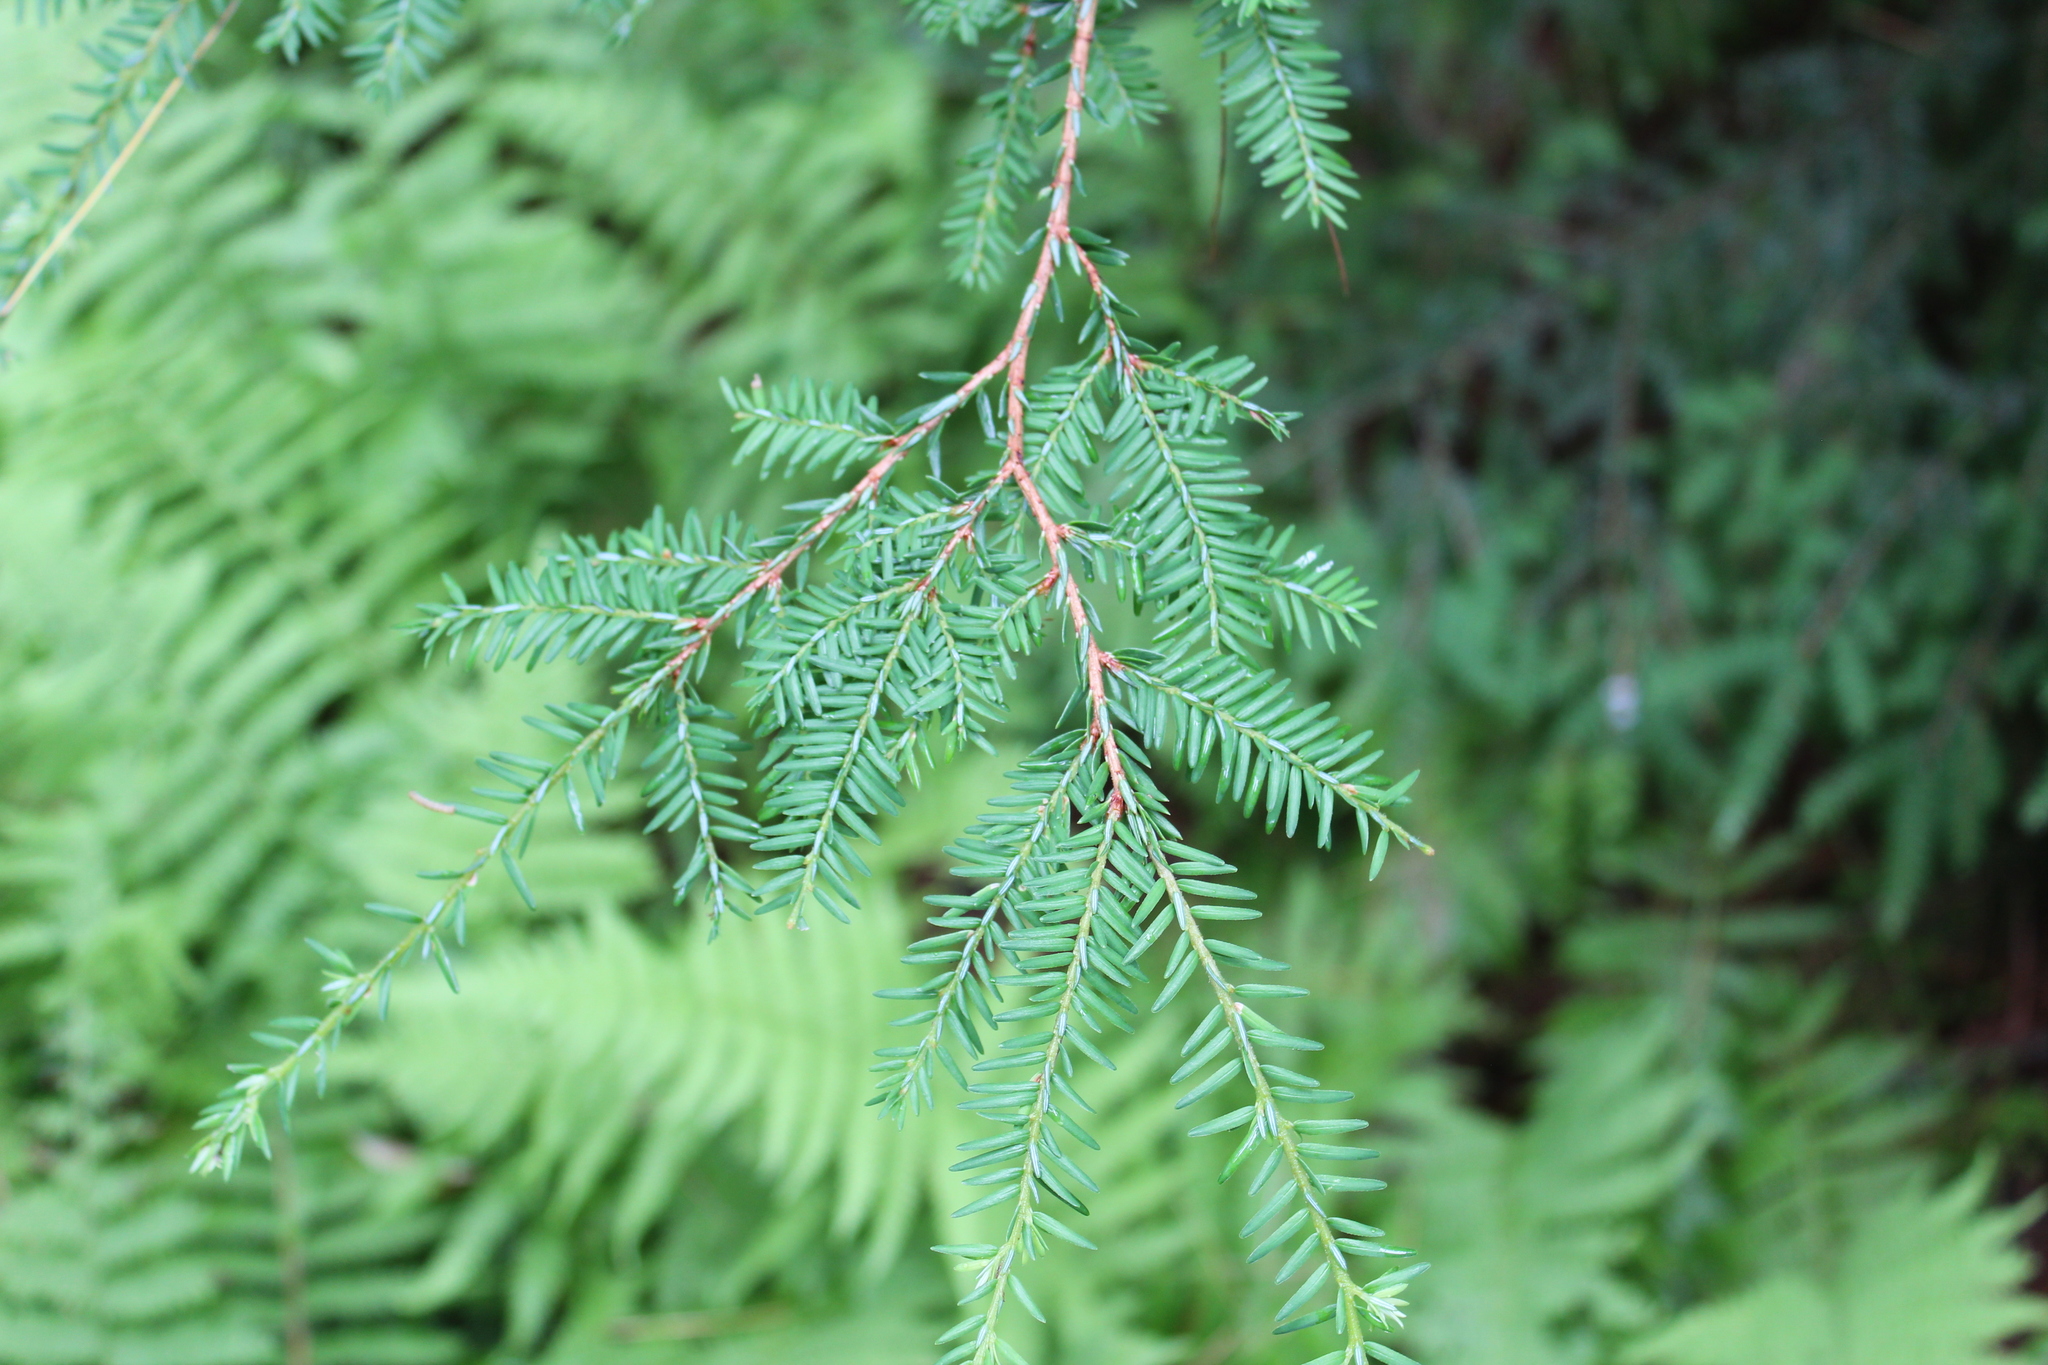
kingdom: Plantae
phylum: Tracheophyta
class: Pinopsida
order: Pinales
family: Pinaceae
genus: Tsuga
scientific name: Tsuga canadensis
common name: Eastern hemlock
